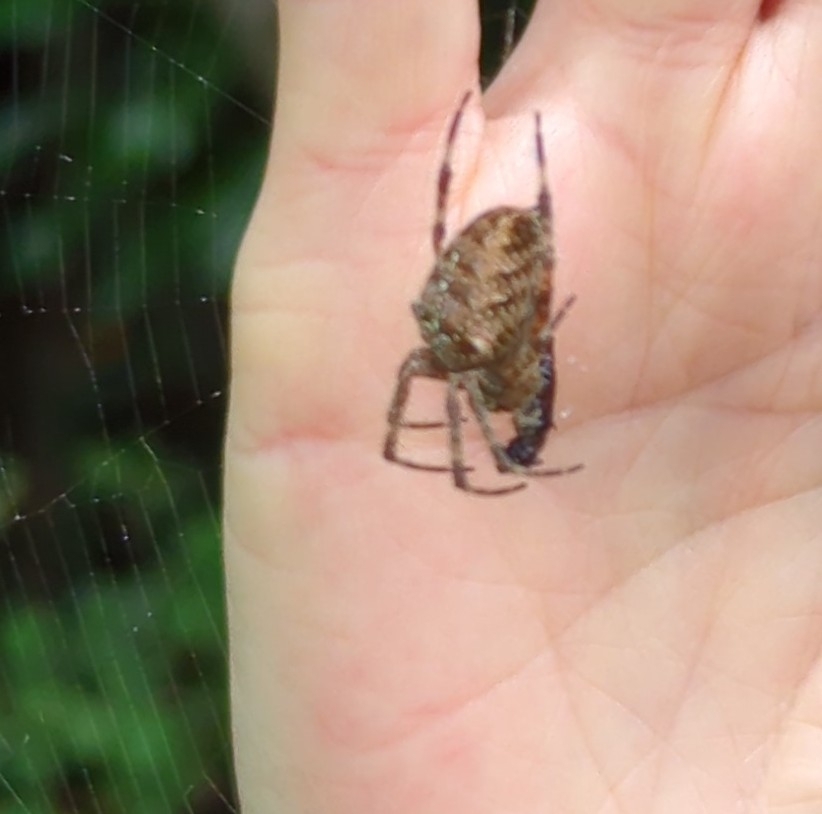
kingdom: Animalia
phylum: Arthropoda
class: Arachnida
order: Araneae
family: Araneidae
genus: Araneus
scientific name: Araneus diadematus
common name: Cross orbweaver
